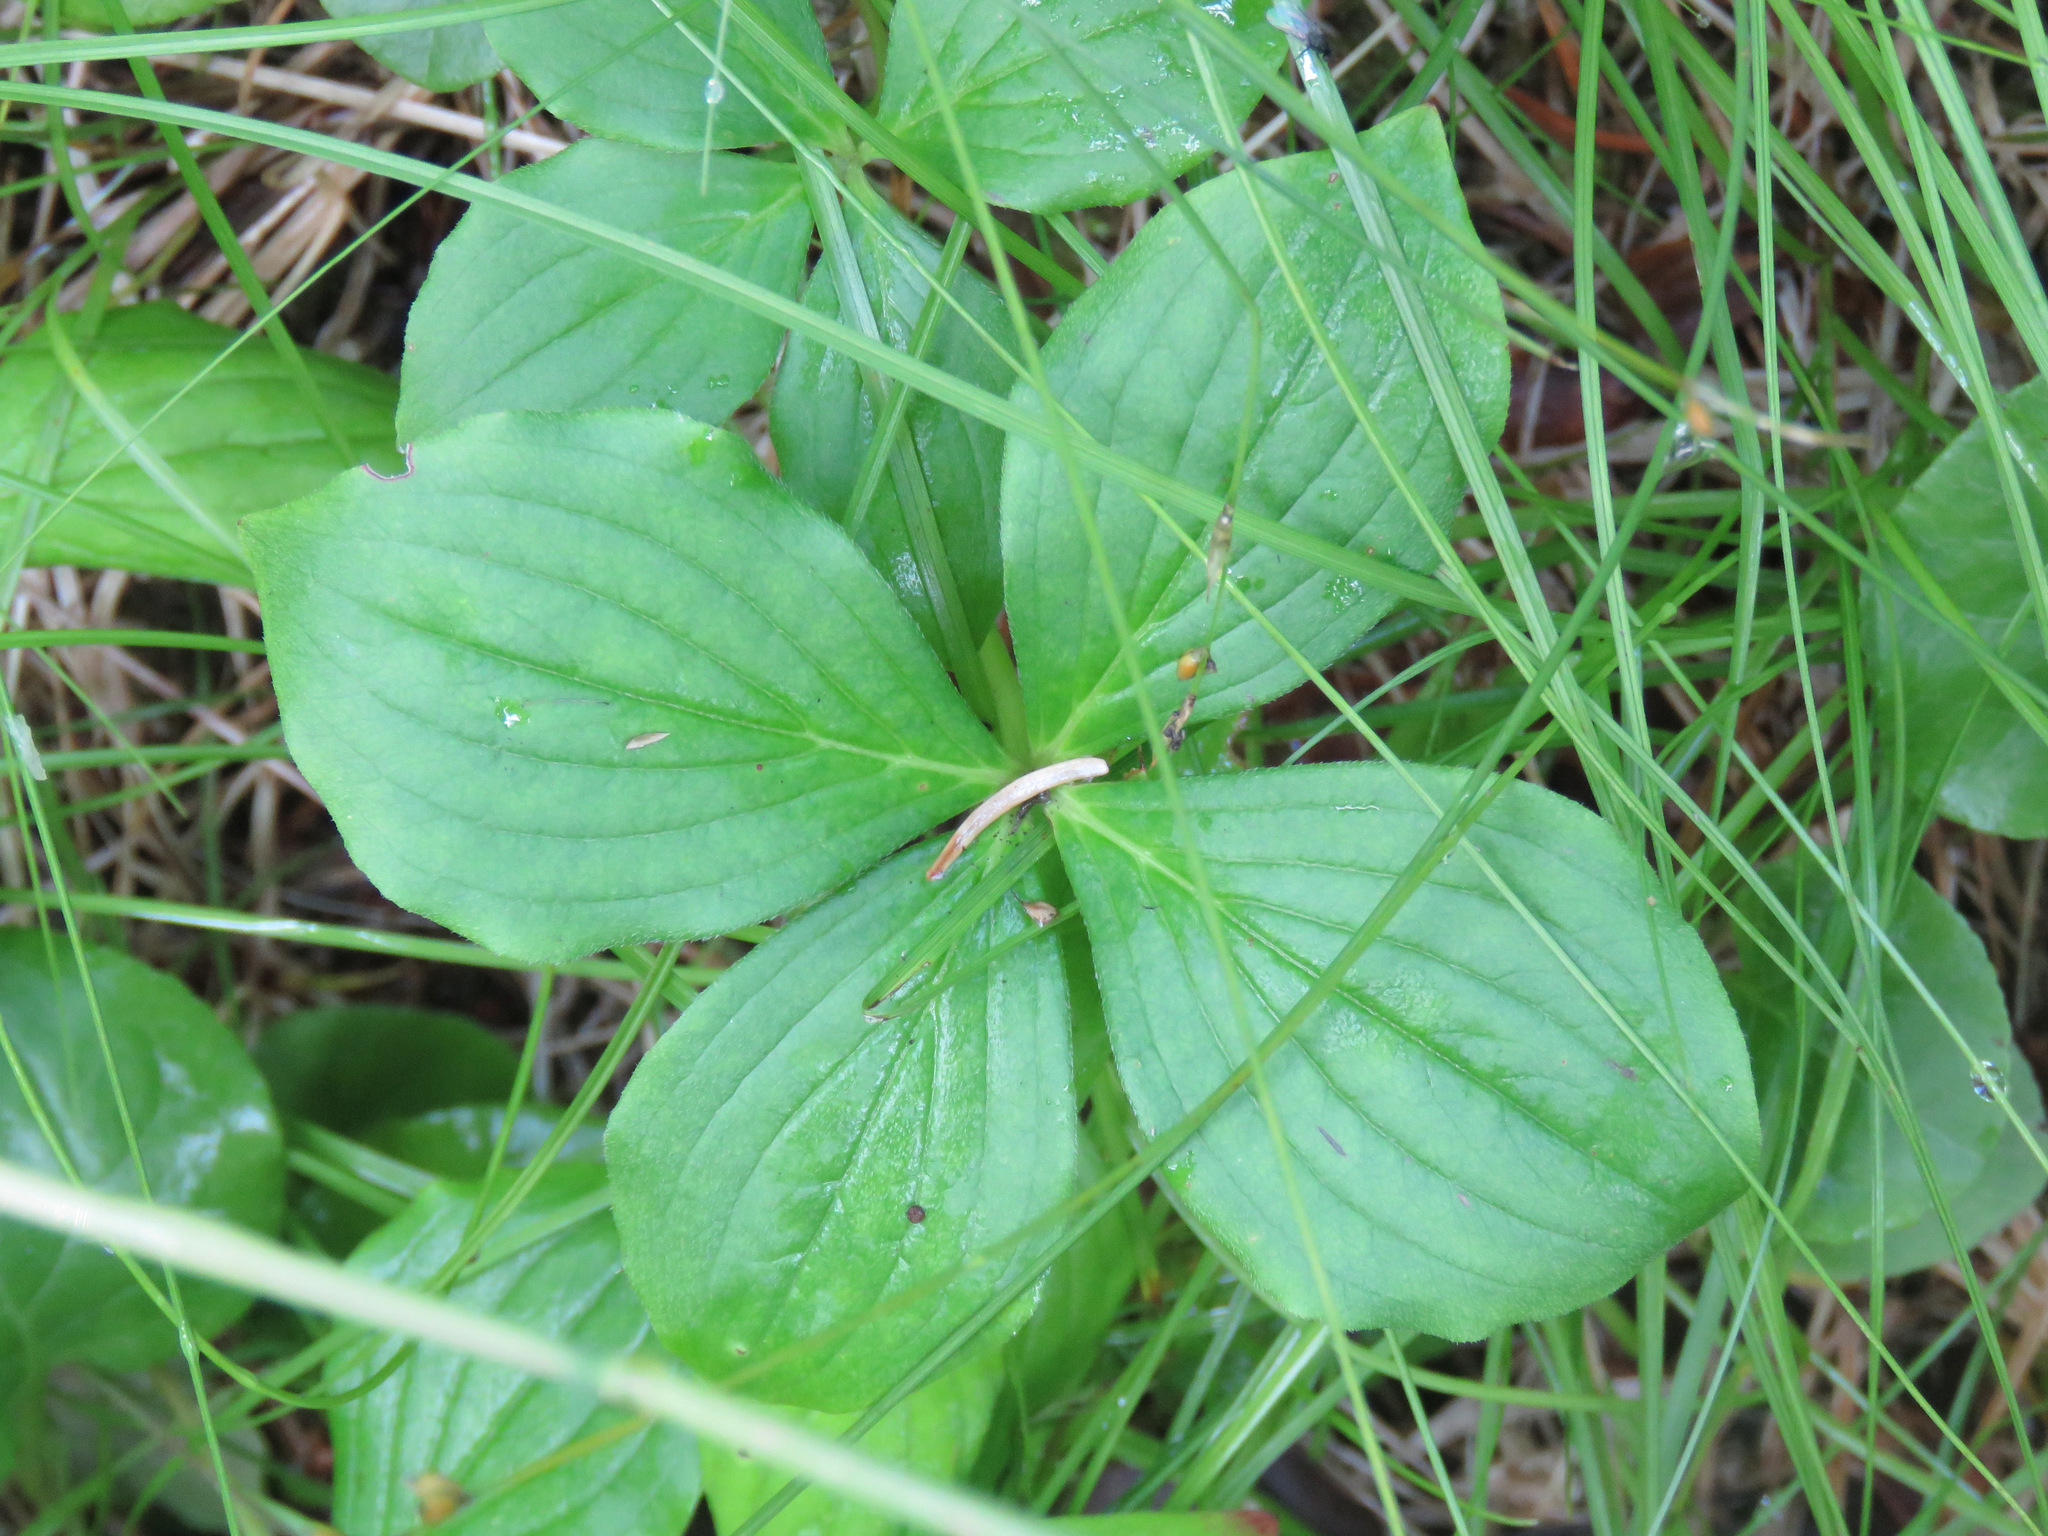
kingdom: Plantae
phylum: Tracheophyta
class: Magnoliopsida
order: Cornales
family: Cornaceae
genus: Cornus
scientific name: Cornus canadensis
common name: Creeping dogwood
